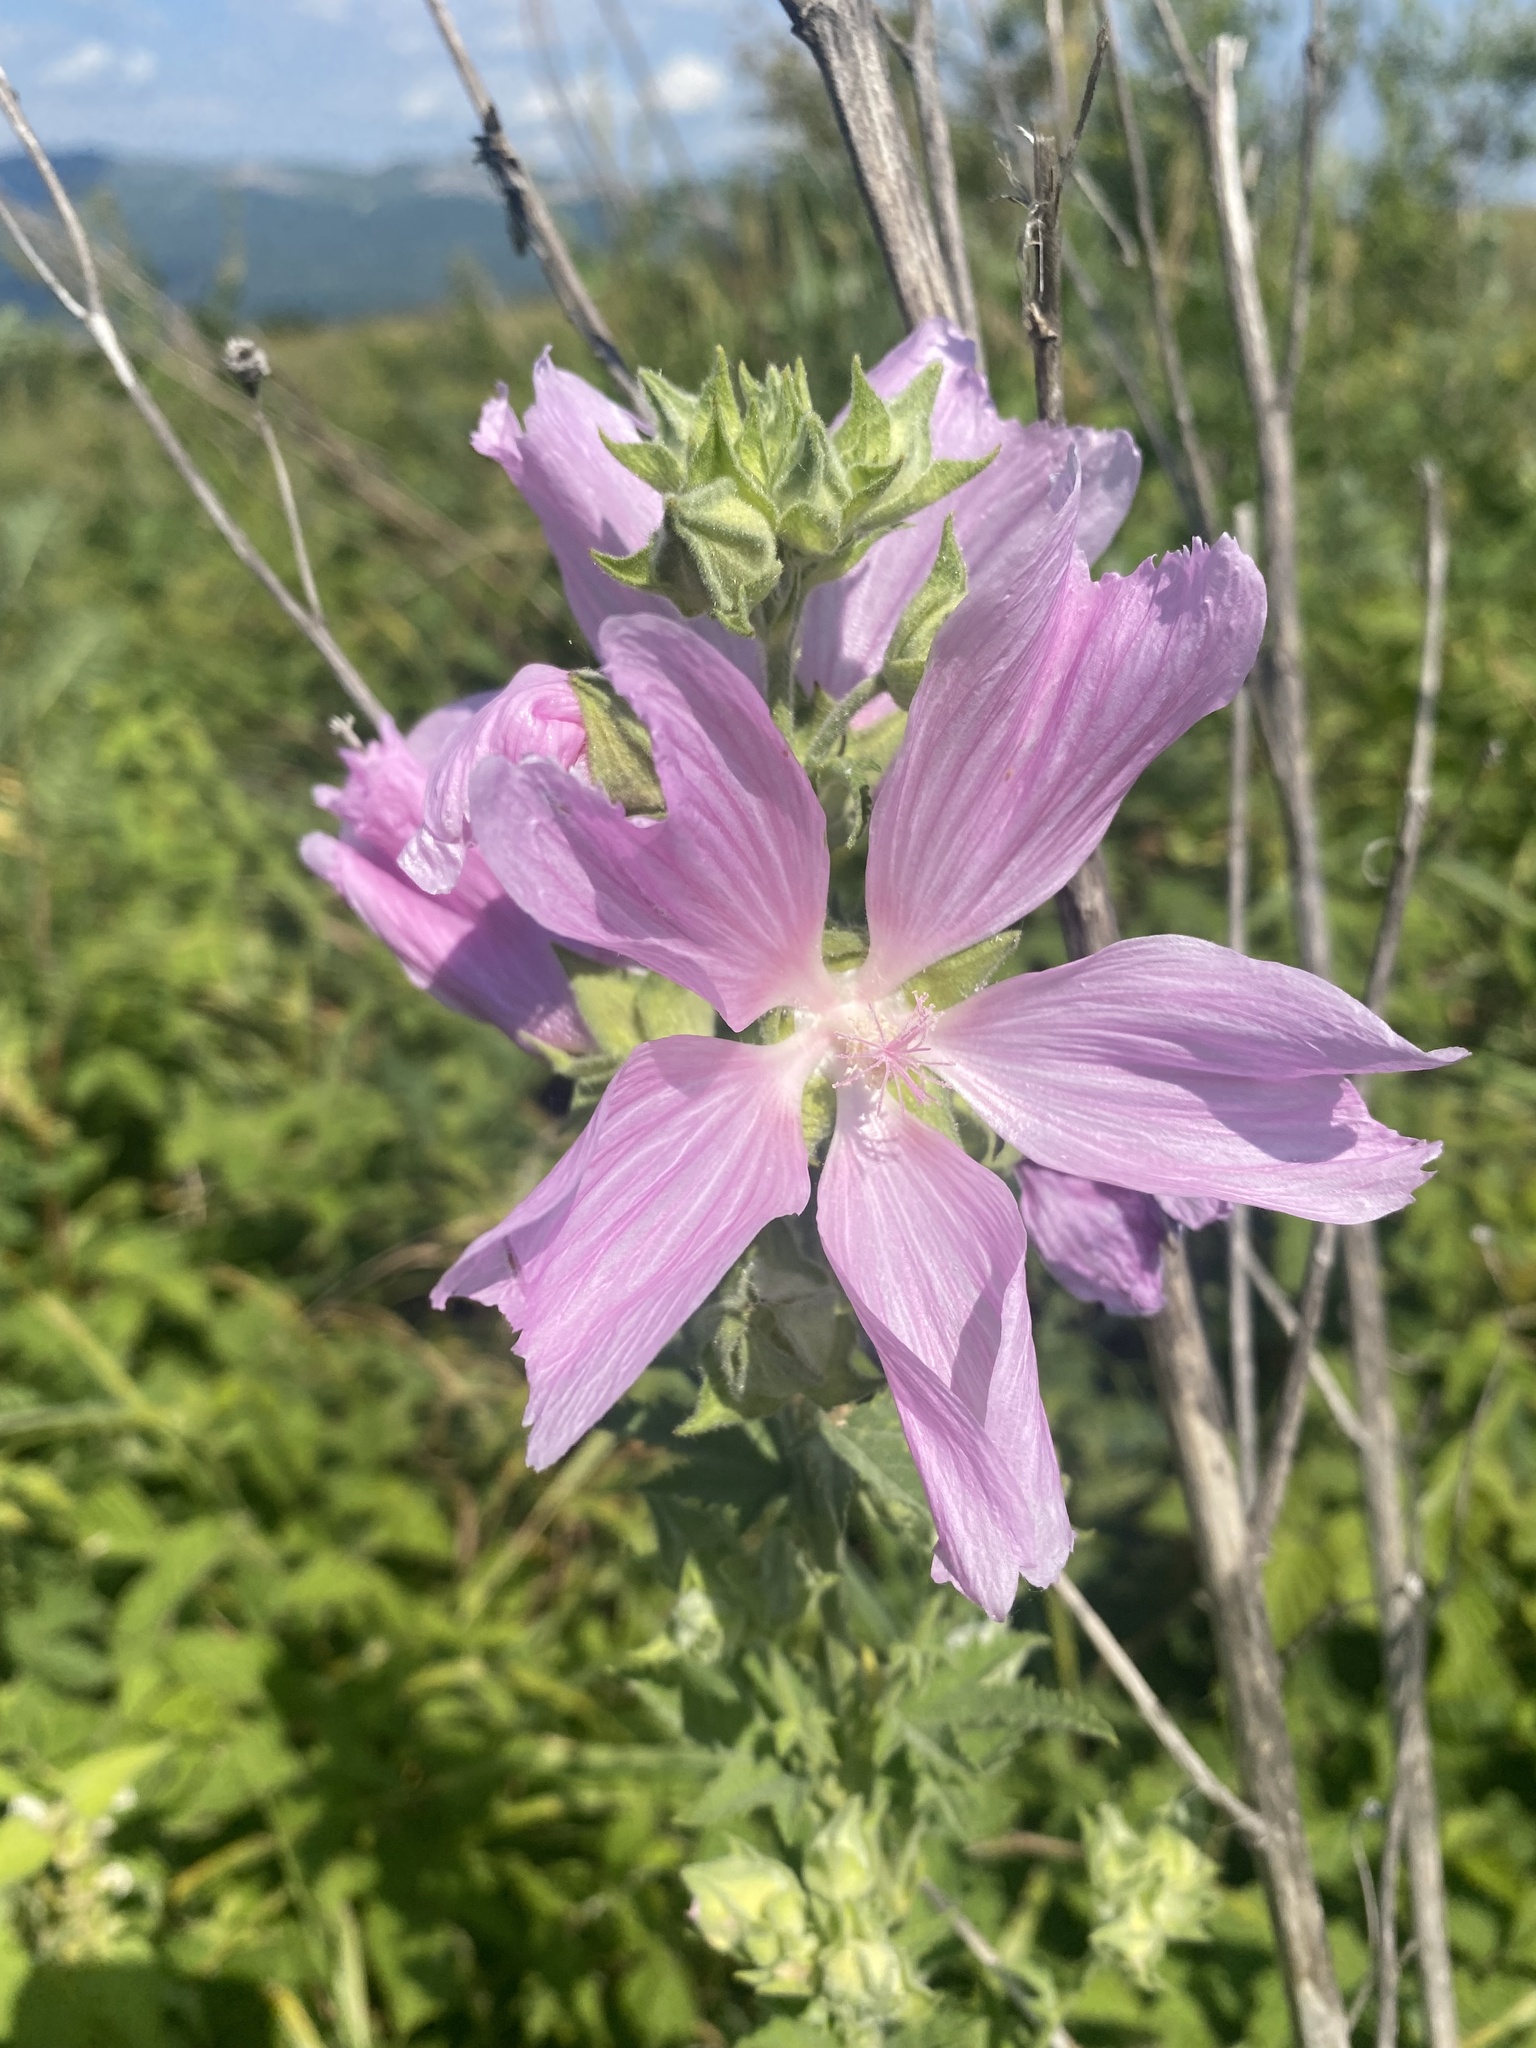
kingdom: Plantae
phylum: Tracheophyta
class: Magnoliopsida
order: Malvales
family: Malvaceae
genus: Malva
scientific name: Malva thuringiaca
